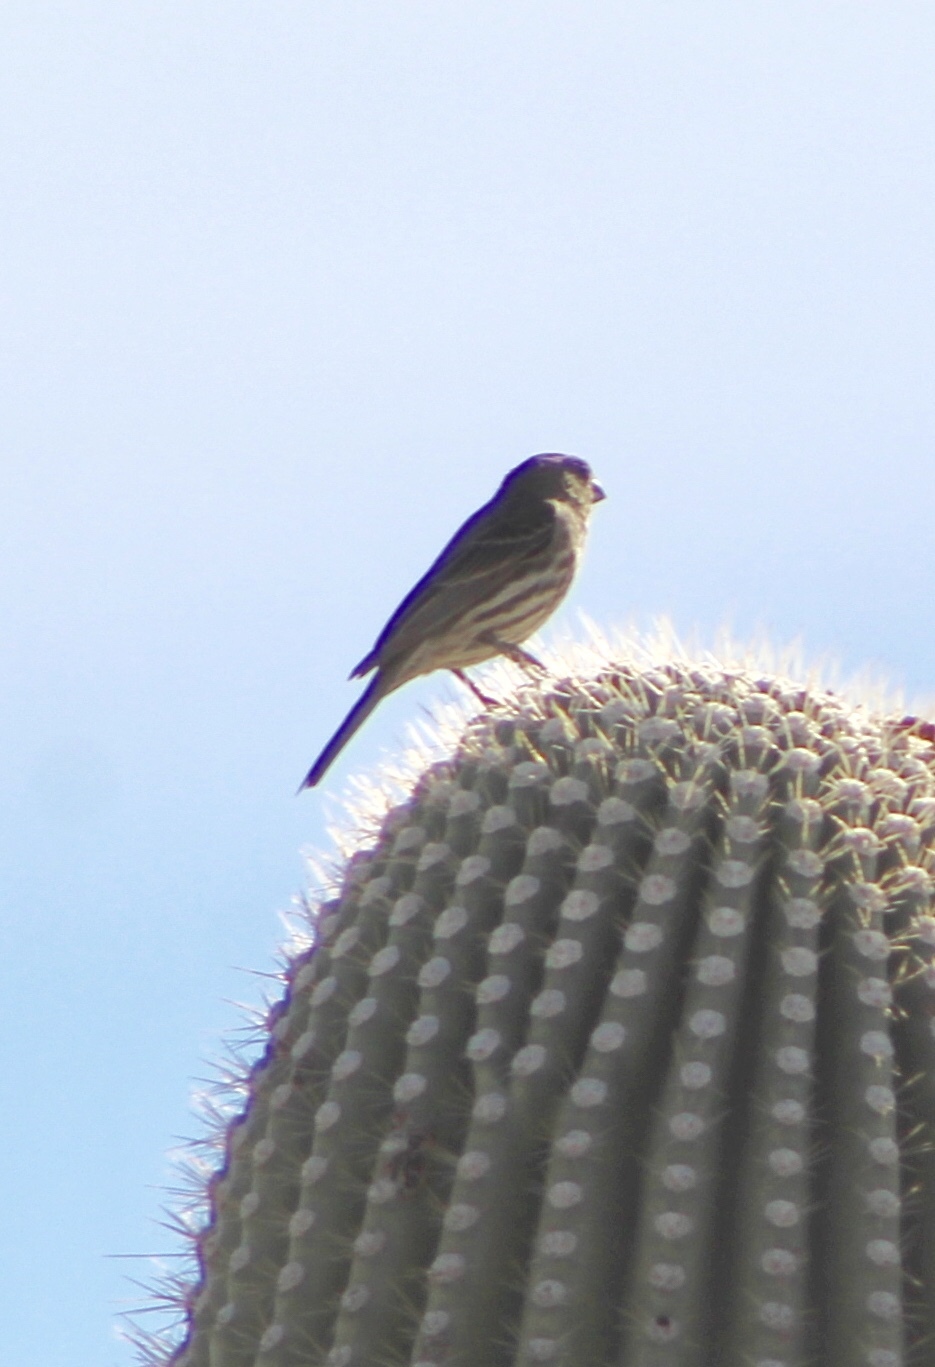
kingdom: Animalia
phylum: Chordata
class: Aves
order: Passeriformes
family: Fringillidae
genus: Haemorhous
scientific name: Haemorhous mexicanus
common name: House finch
